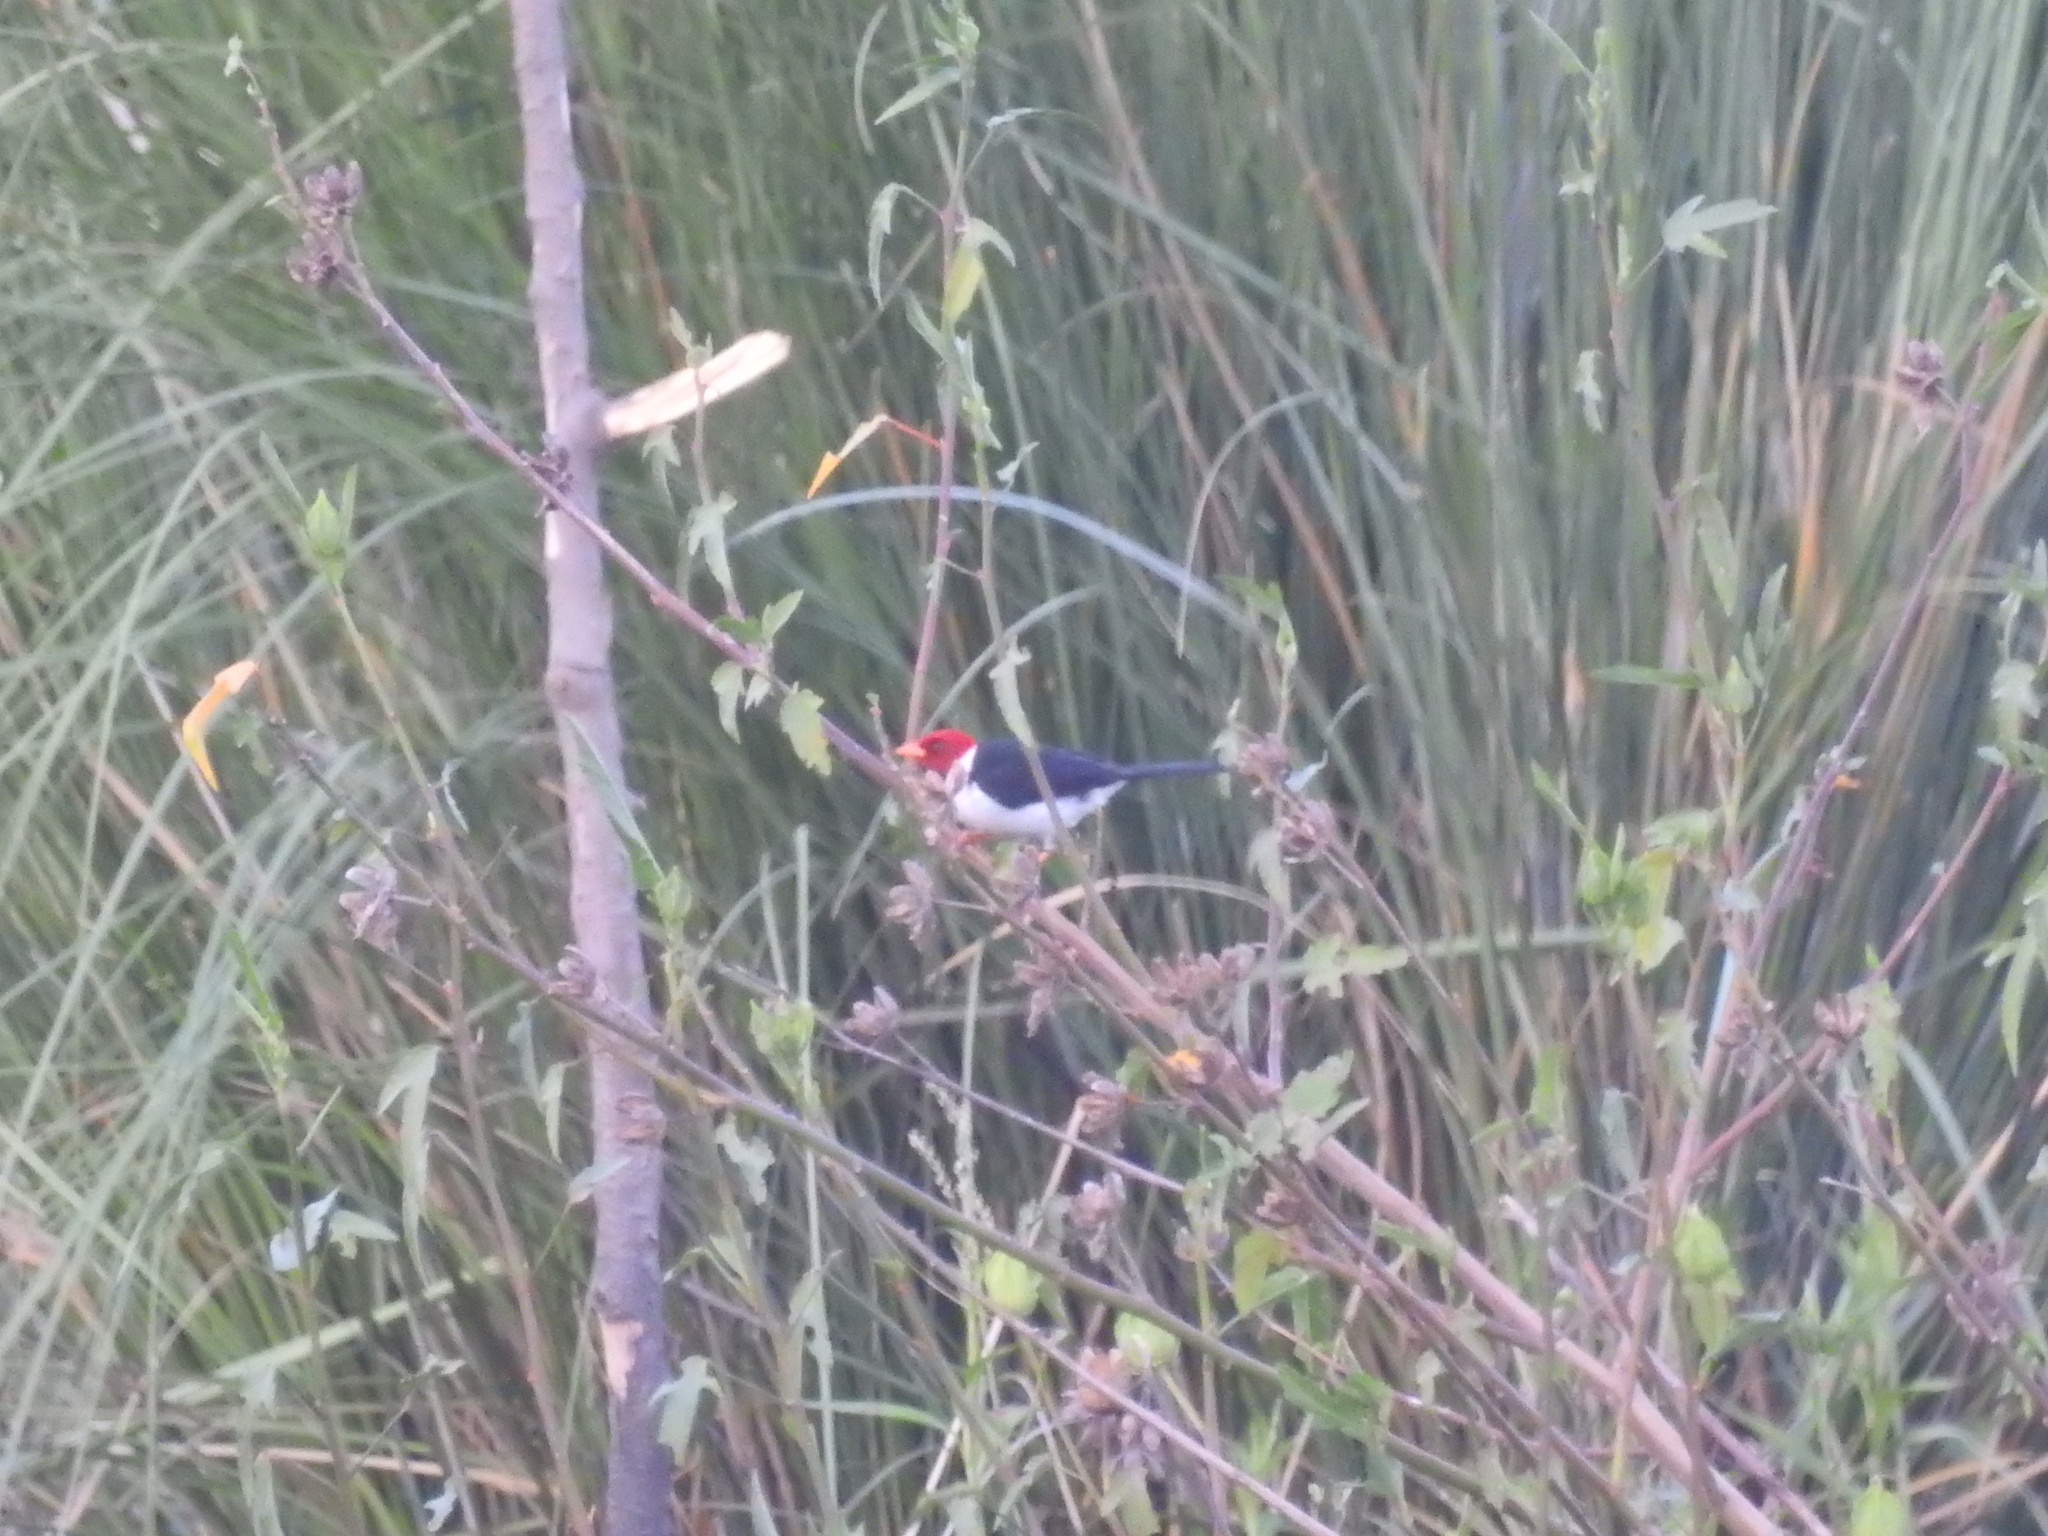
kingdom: Animalia
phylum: Chordata
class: Aves
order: Passeriformes
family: Thraupidae
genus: Paroaria
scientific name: Paroaria capitata
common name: Yellow-billed cardinal
